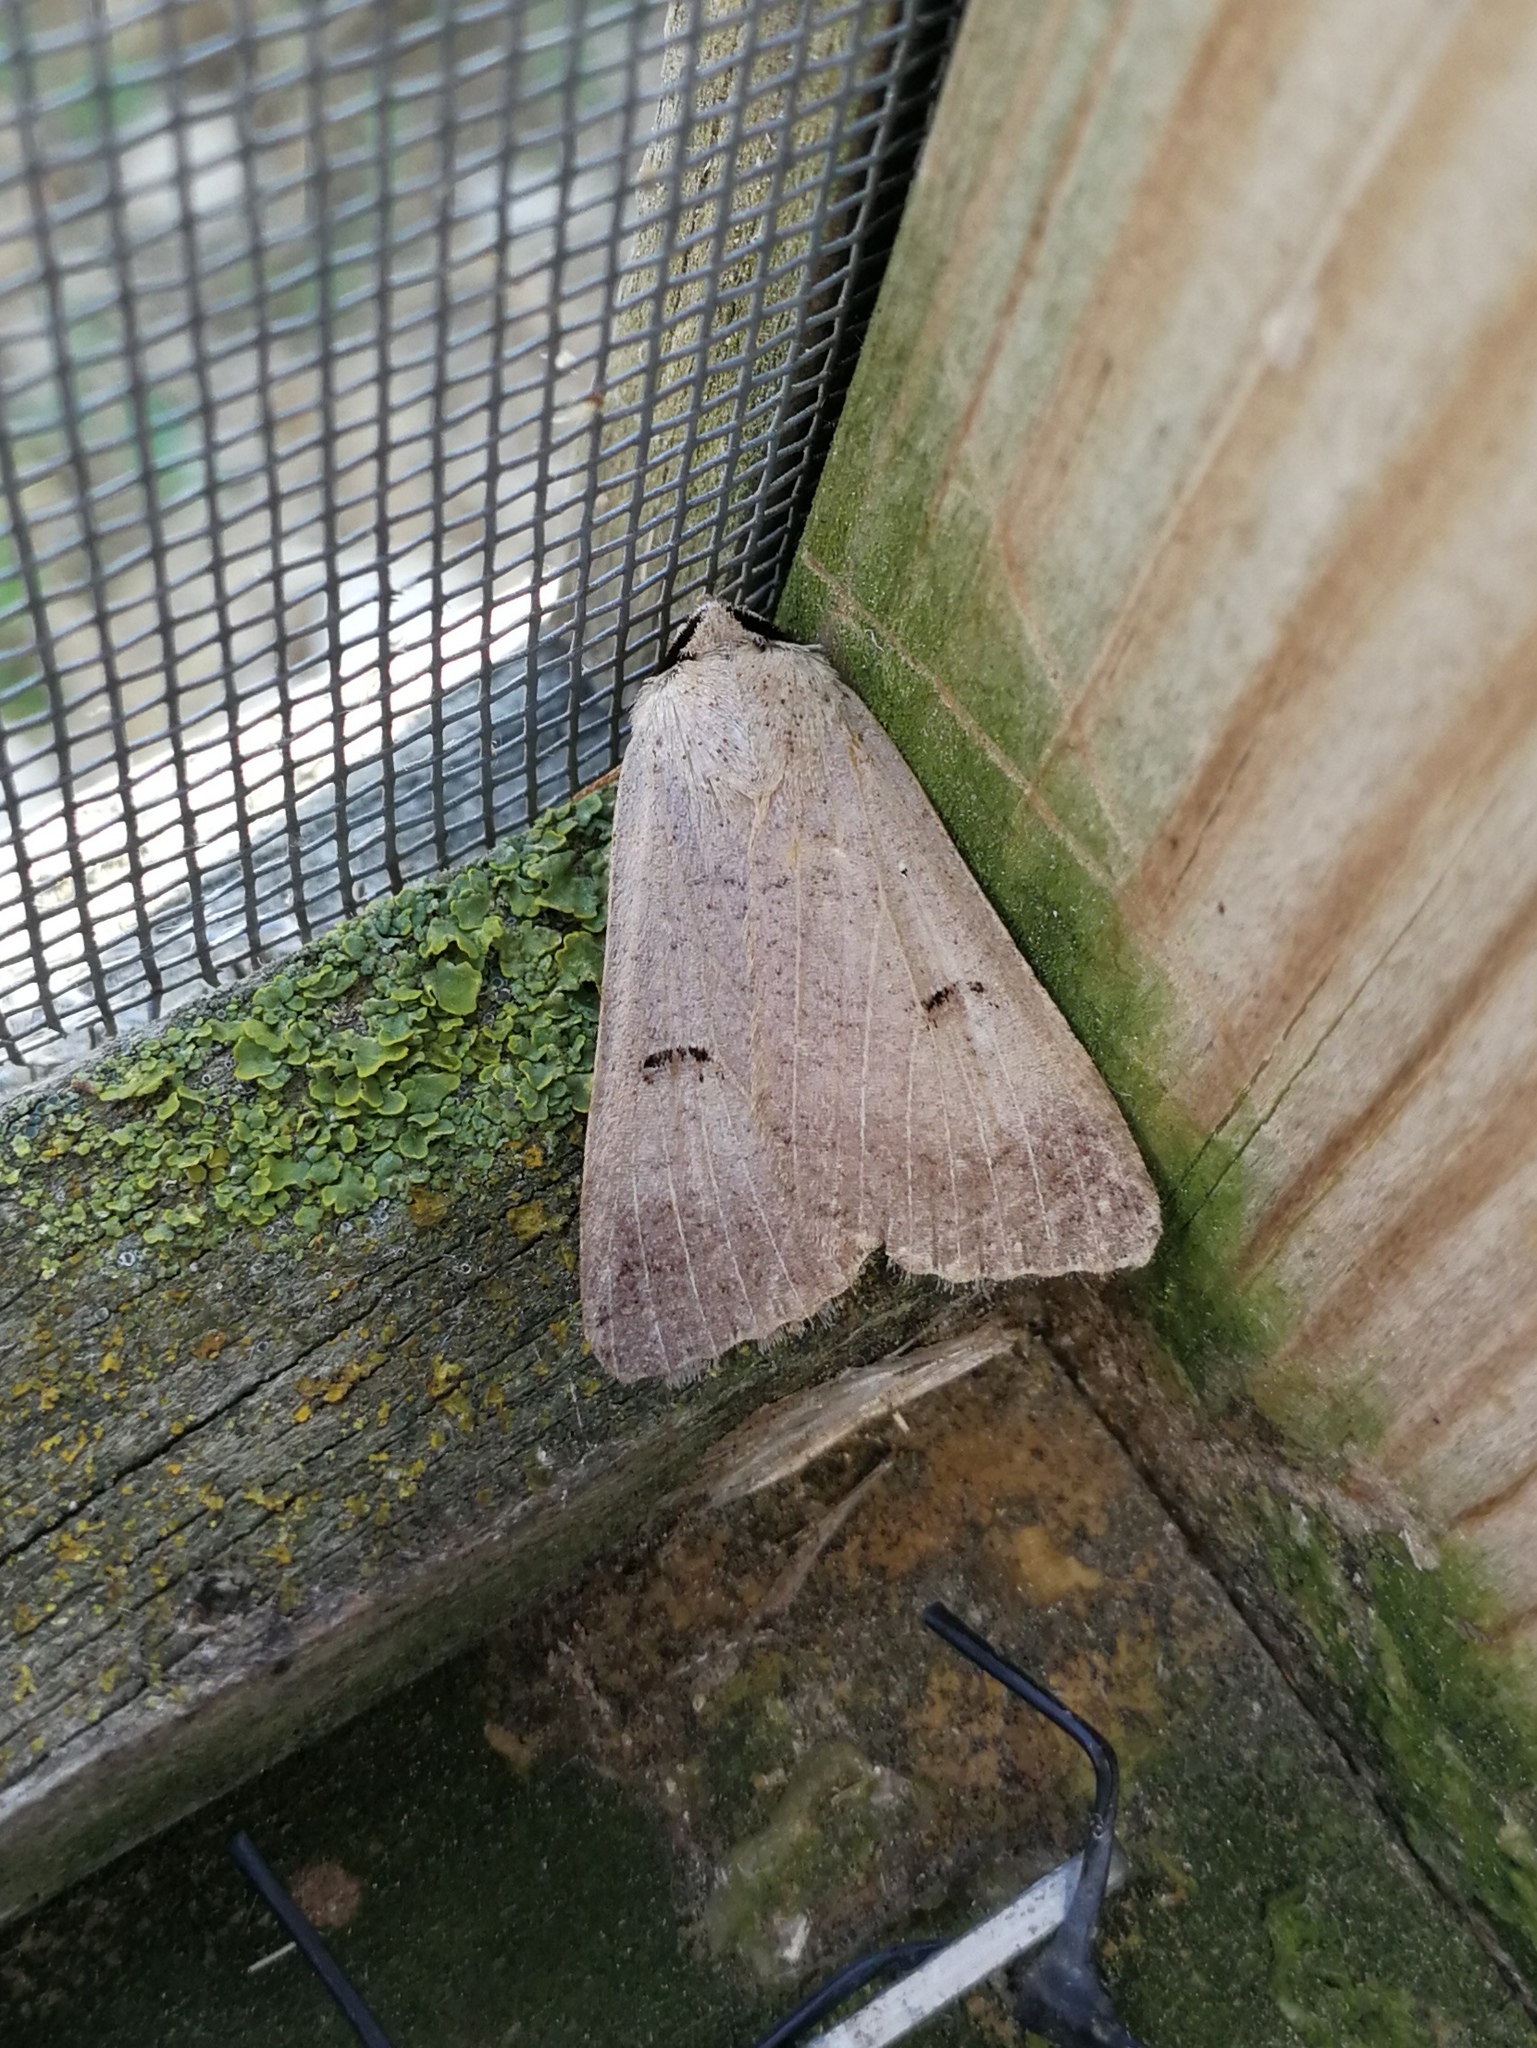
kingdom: Animalia
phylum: Arthropoda
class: Insecta
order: Lepidoptera
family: Erebidae
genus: Lygephila
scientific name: Lygephila craccae
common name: Scarce blackneck
